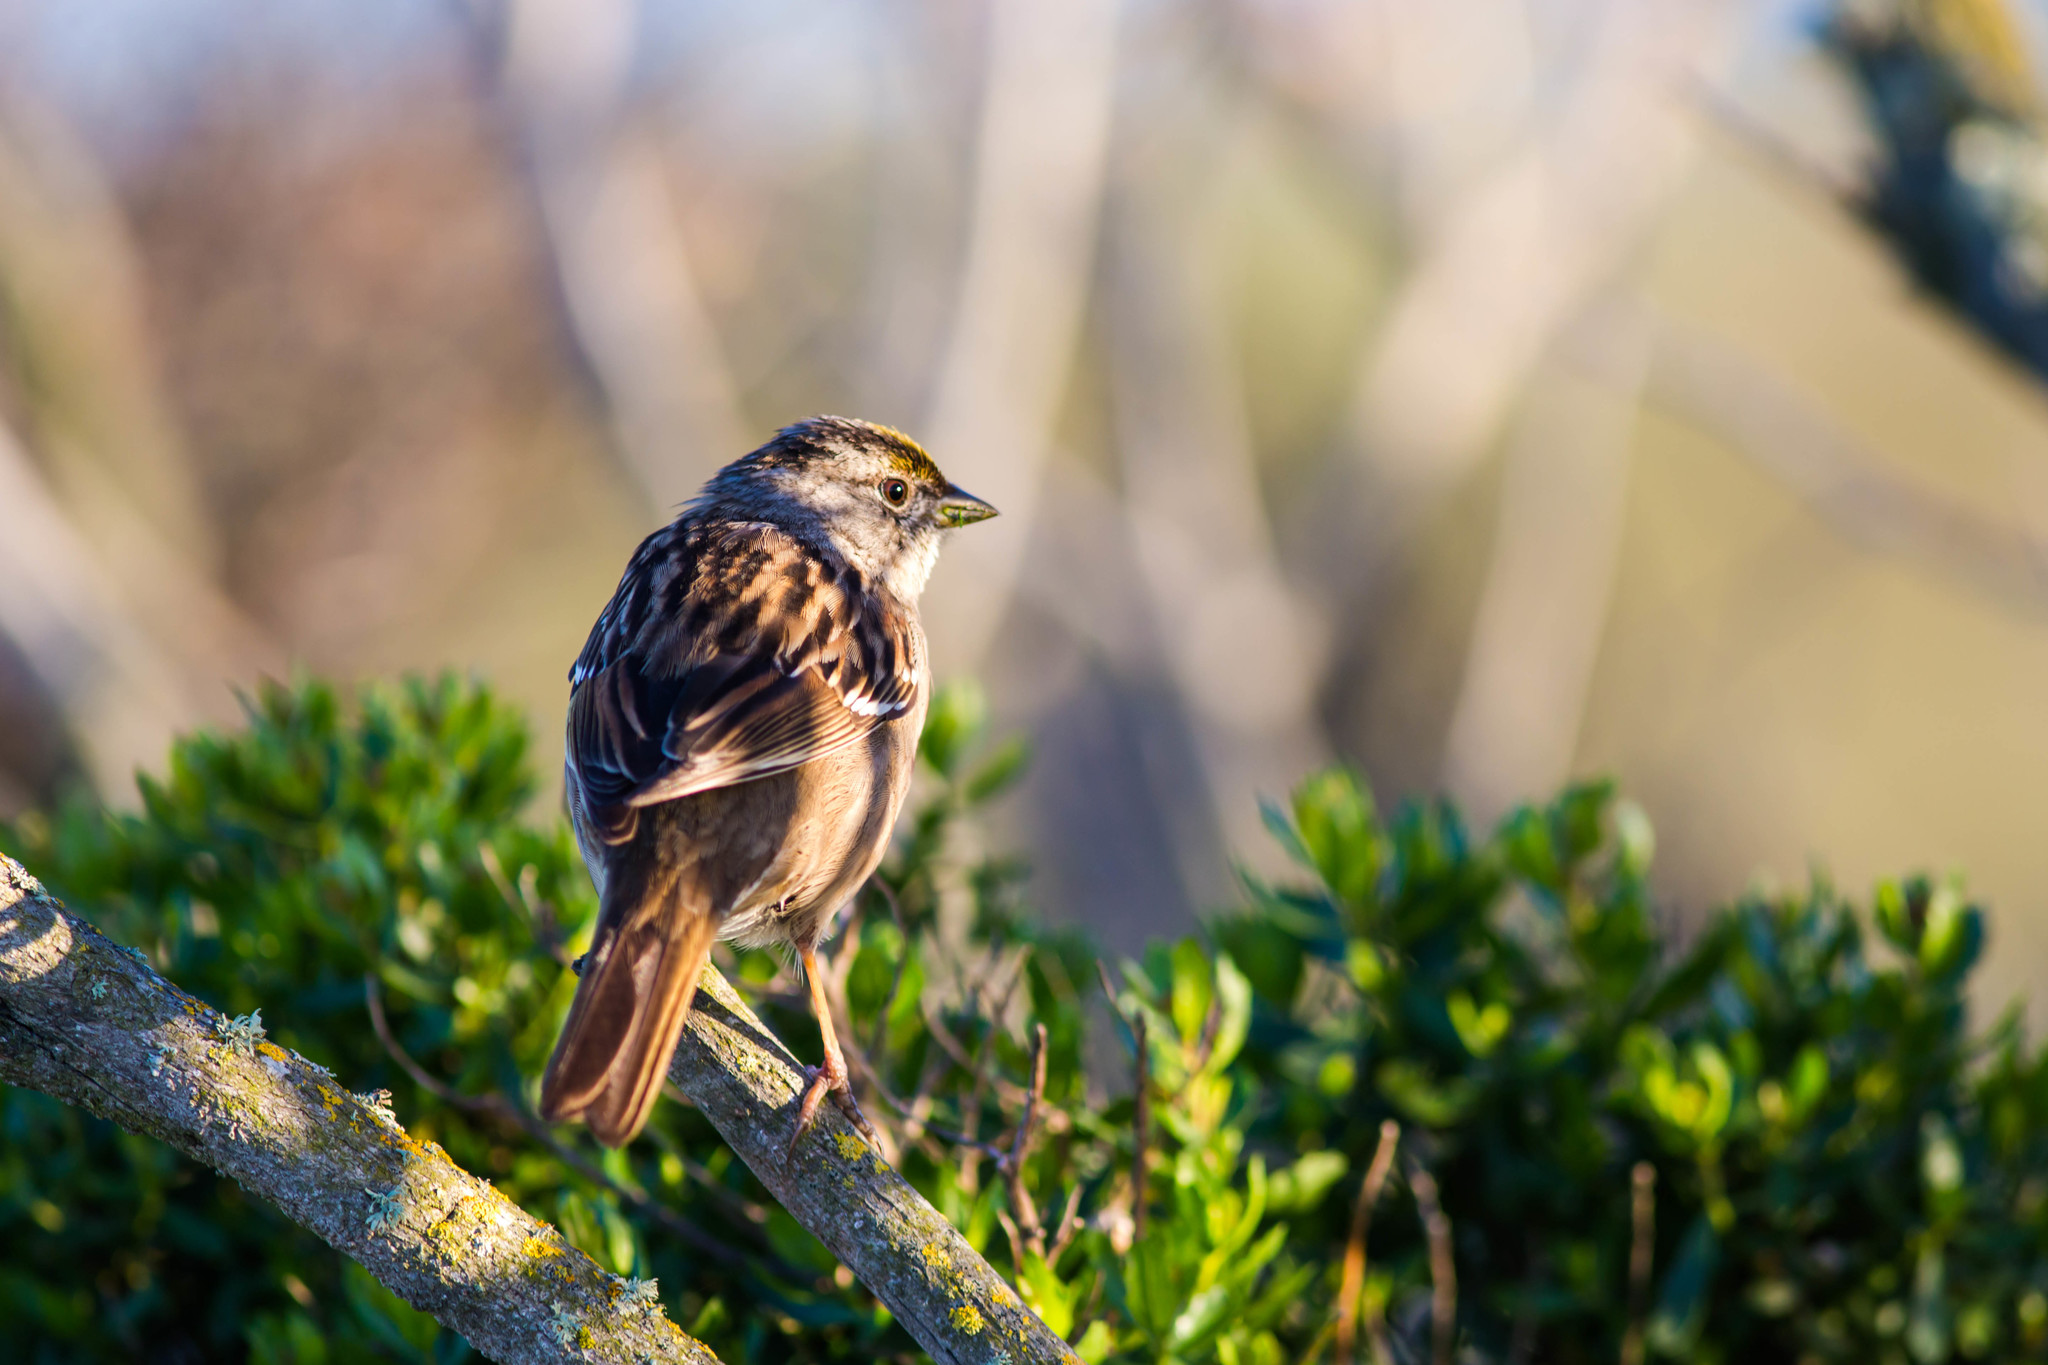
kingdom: Animalia
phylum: Chordata
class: Aves
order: Passeriformes
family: Passerellidae
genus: Zonotrichia
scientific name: Zonotrichia atricapilla
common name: Golden-crowned sparrow
